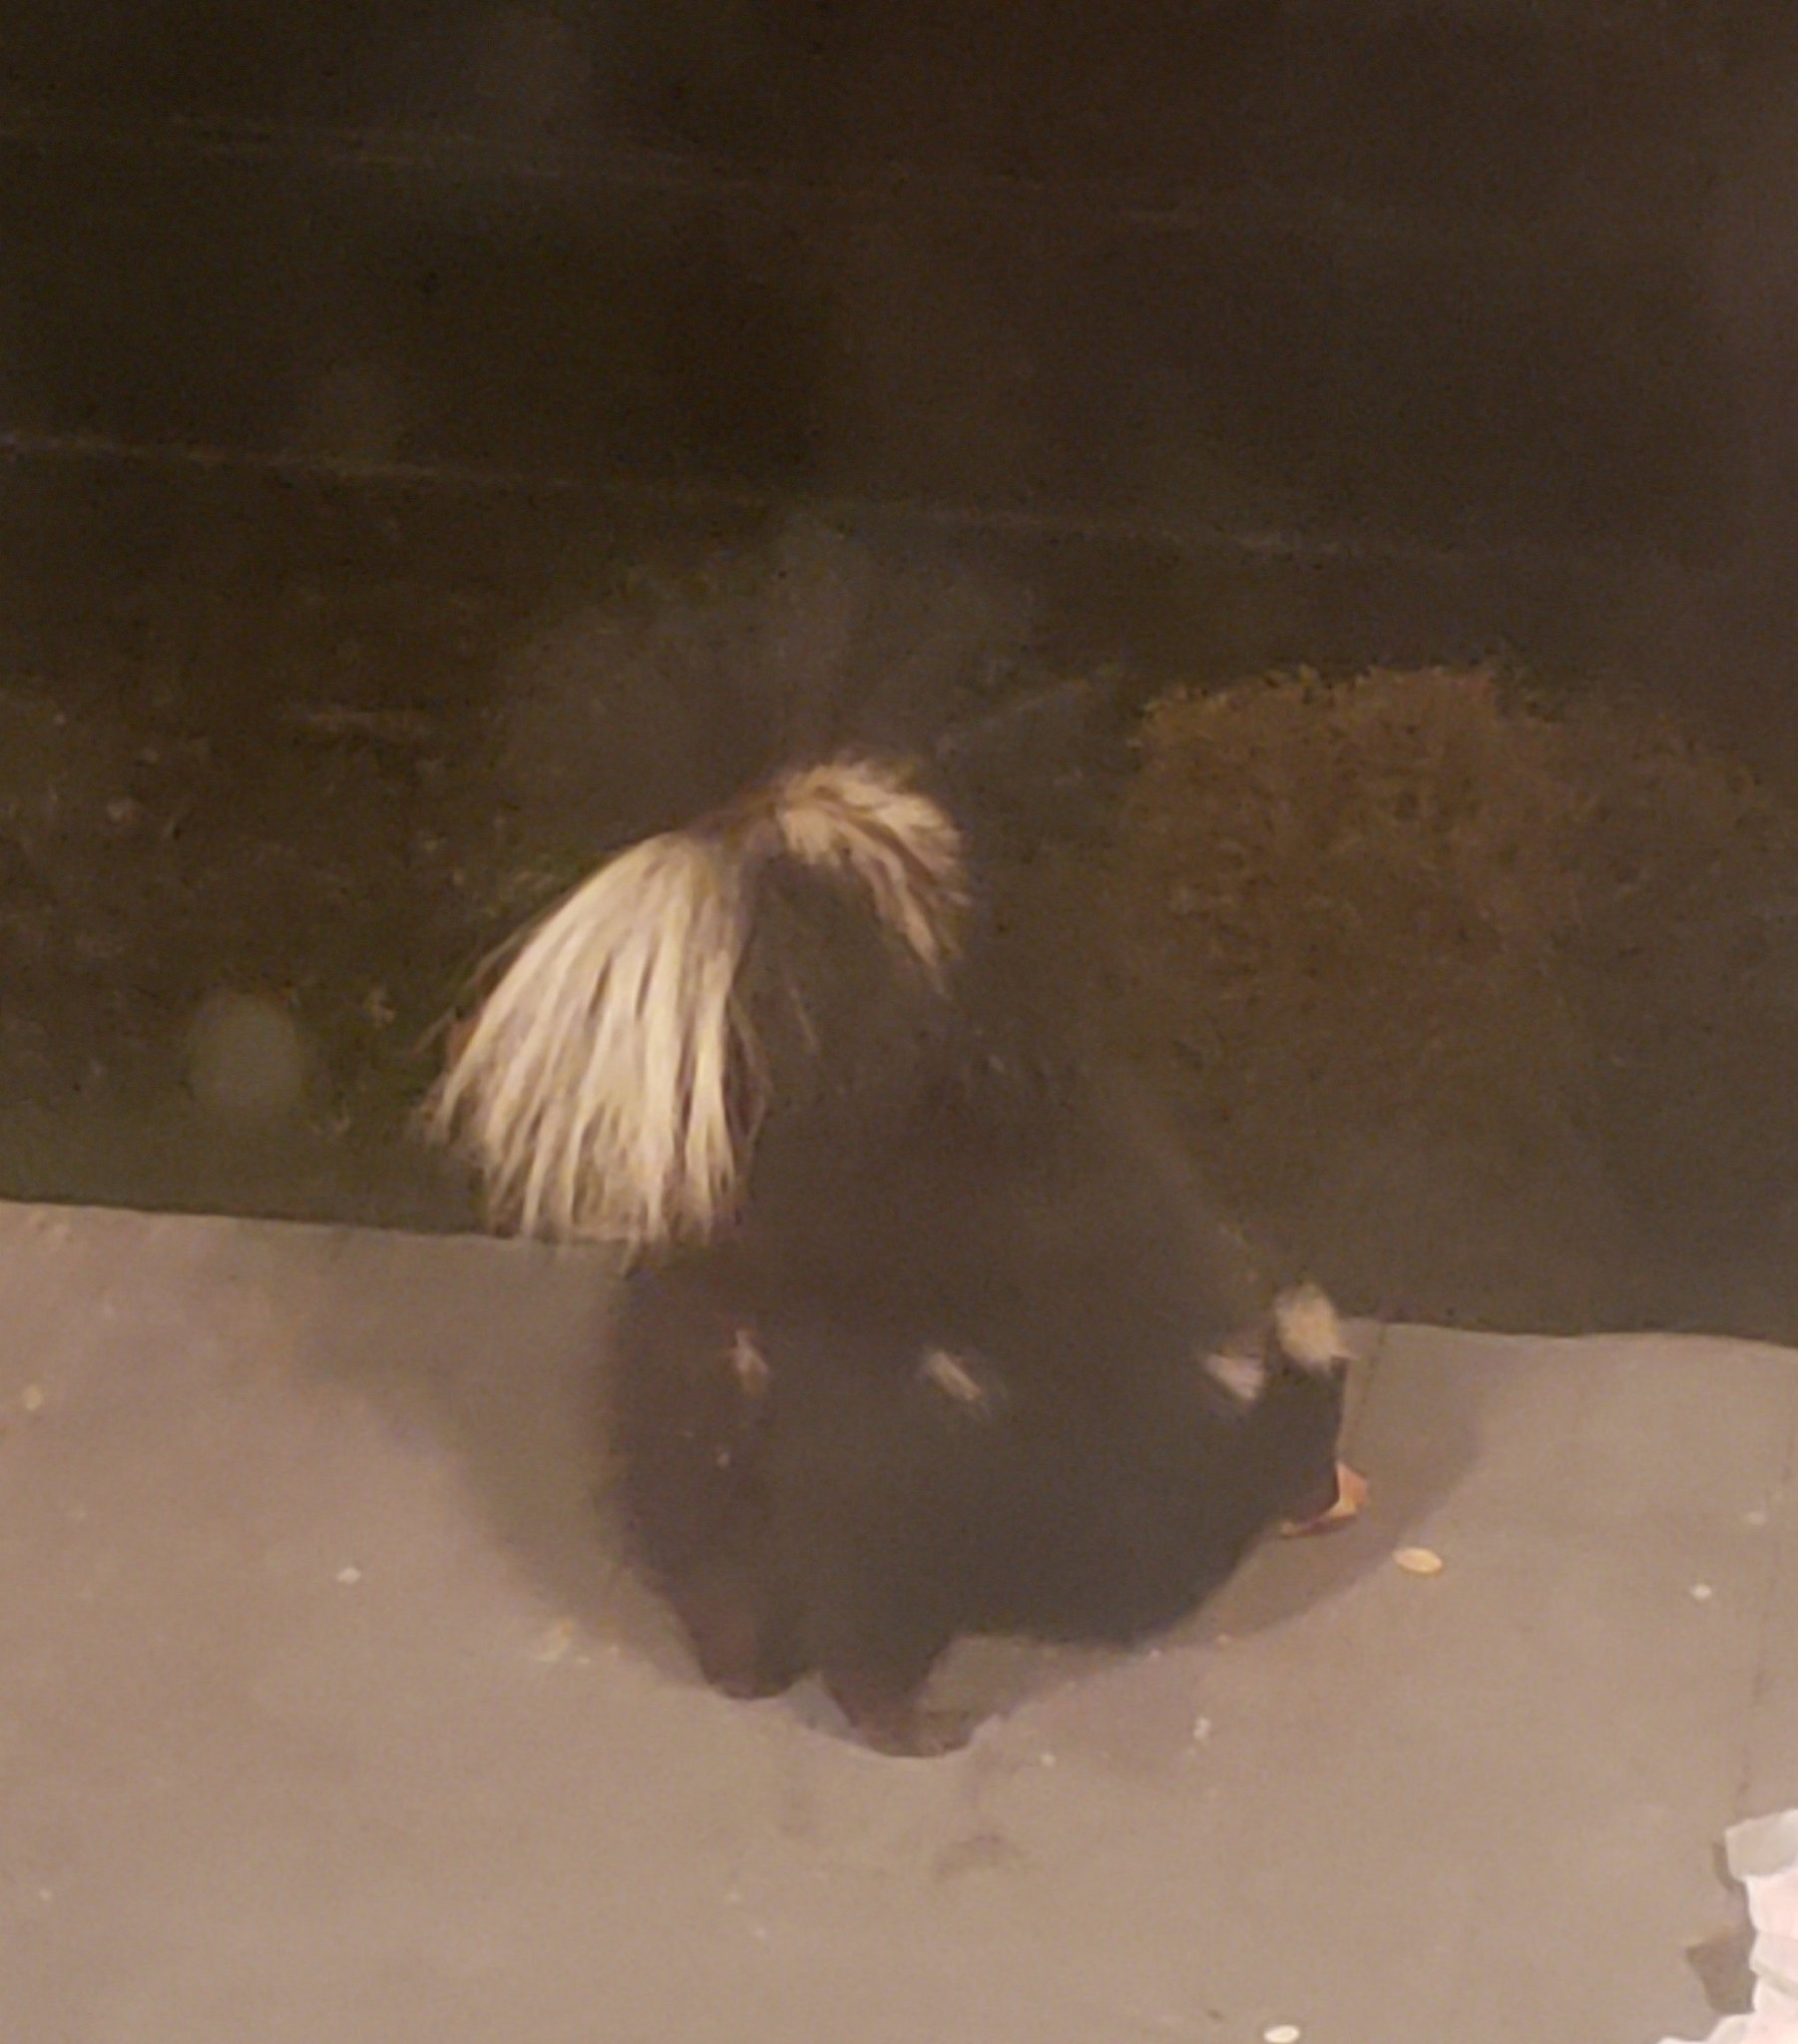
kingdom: Animalia
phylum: Chordata
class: Mammalia
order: Carnivora
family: Mephitidae
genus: Mephitis
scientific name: Mephitis mephitis
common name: Striped skunk
